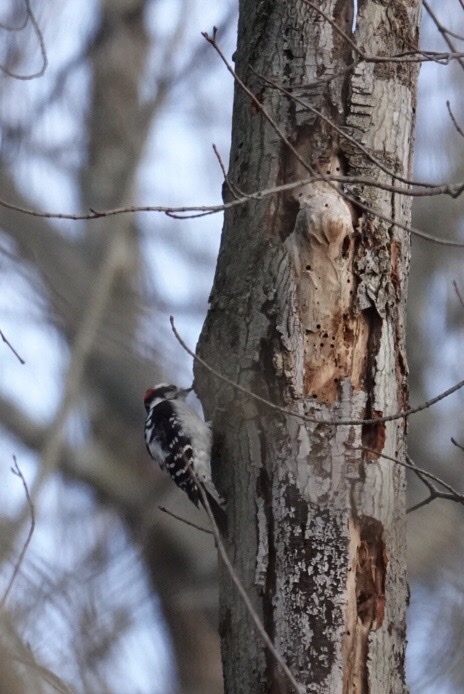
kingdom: Animalia
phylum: Chordata
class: Aves
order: Piciformes
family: Picidae
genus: Dryobates
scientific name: Dryobates pubescens
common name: Downy woodpecker
